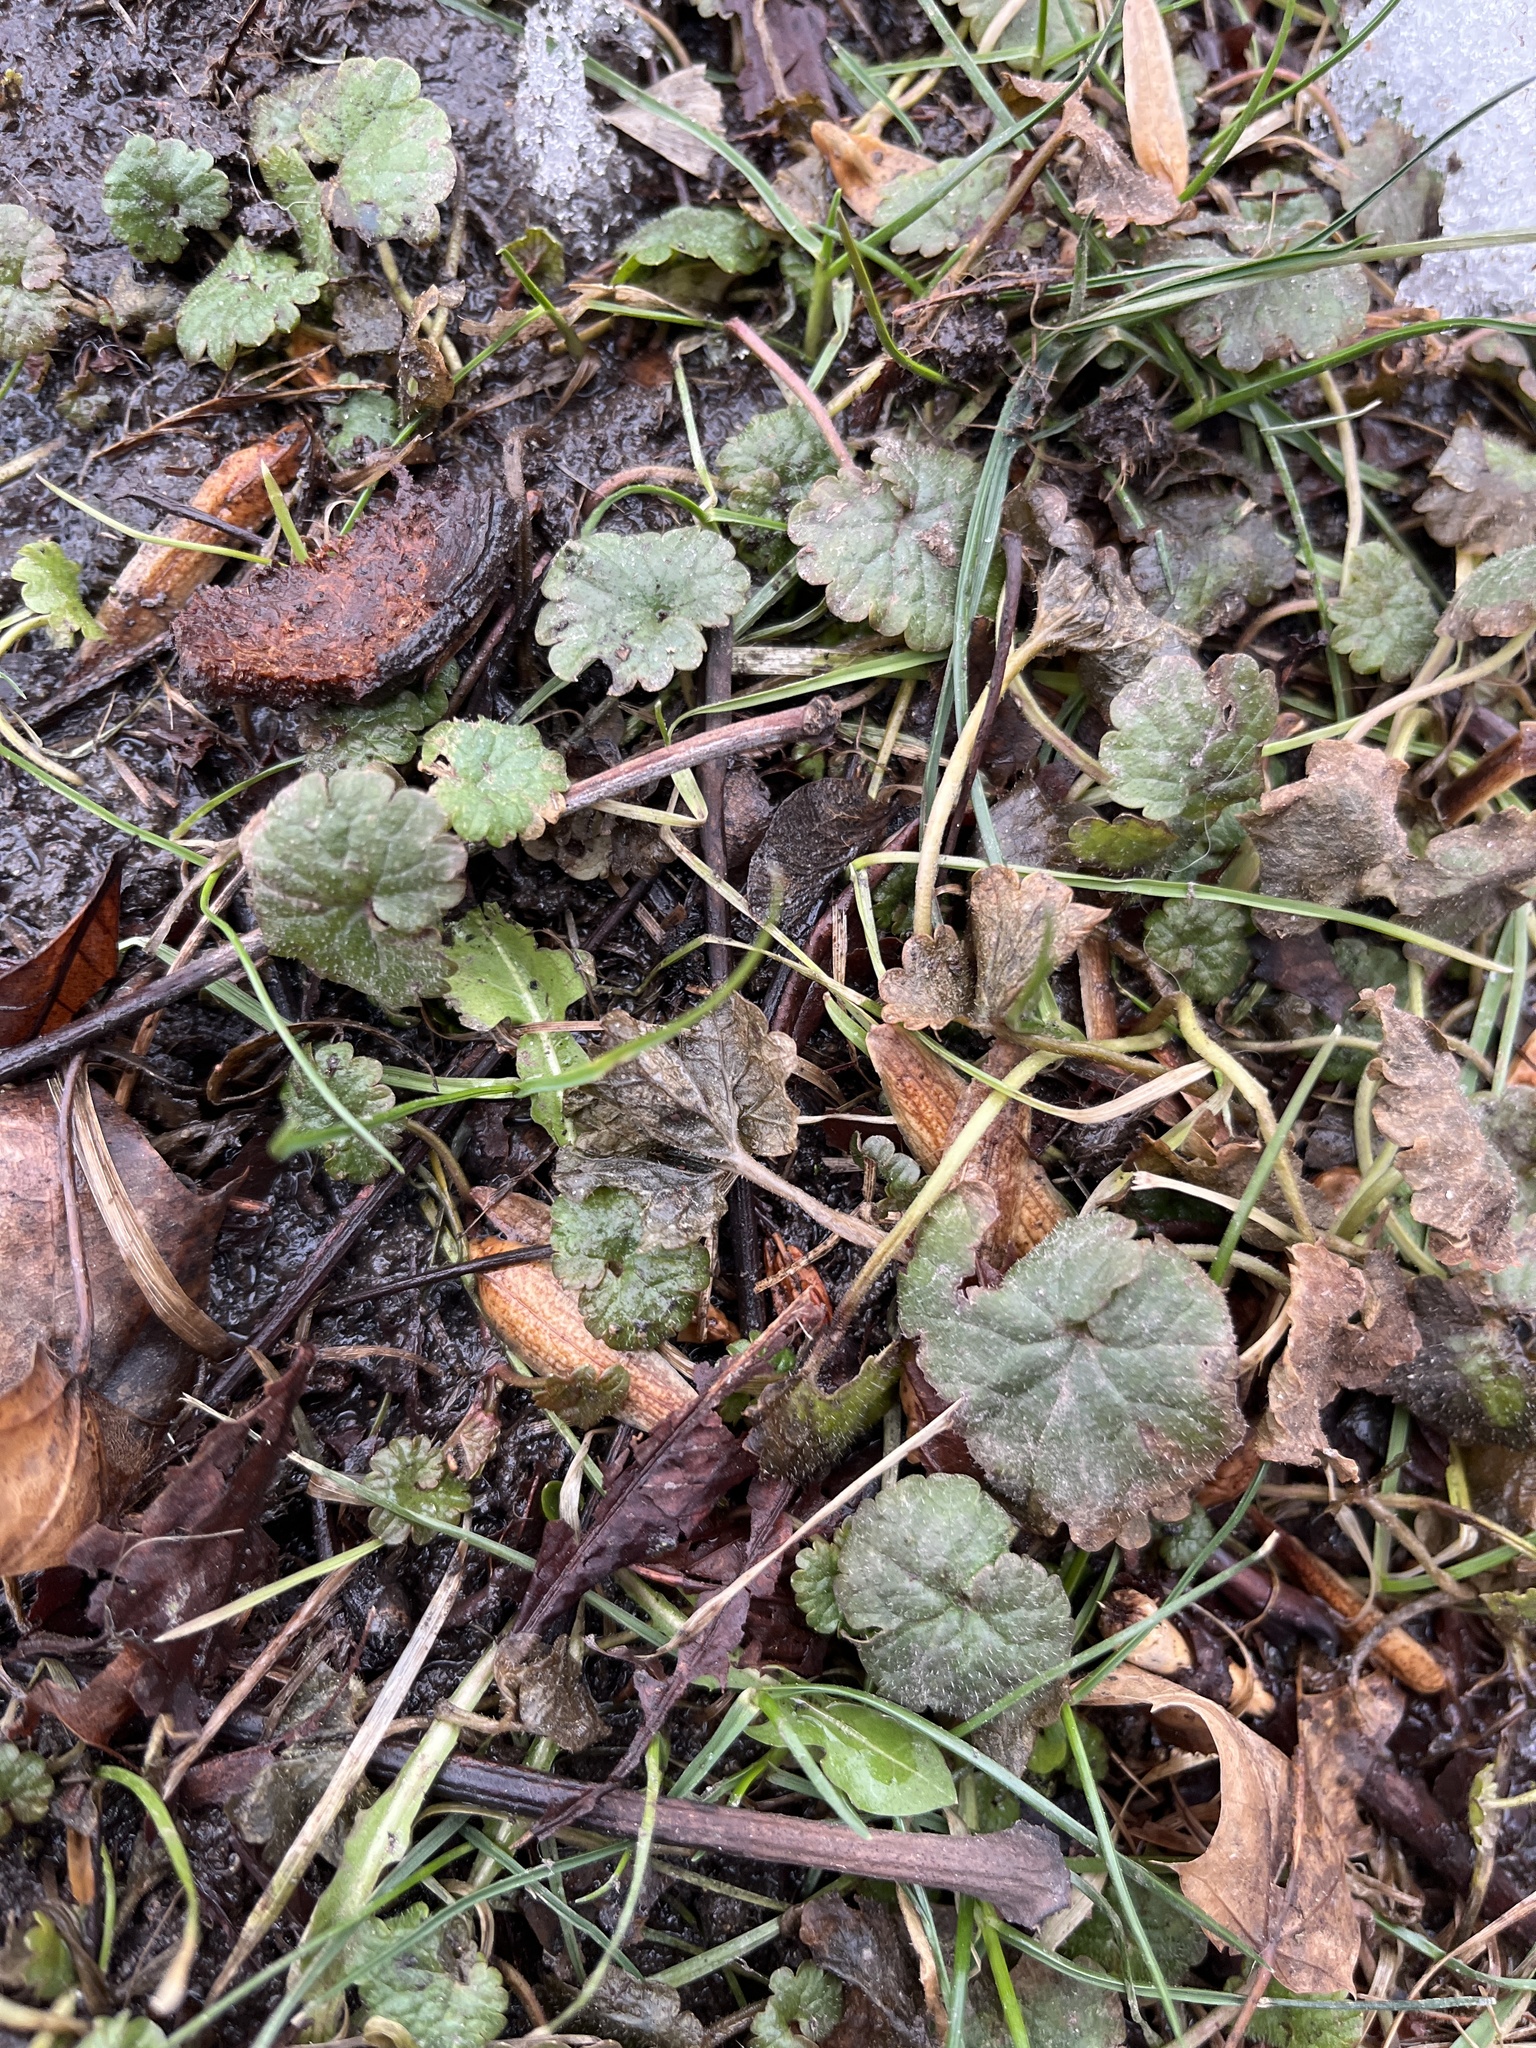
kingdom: Plantae
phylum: Tracheophyta
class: Magnoliopsida
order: Lamiales
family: Lamiaceae
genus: Glechoma
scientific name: Glechoma hederacea
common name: Ground ivy
